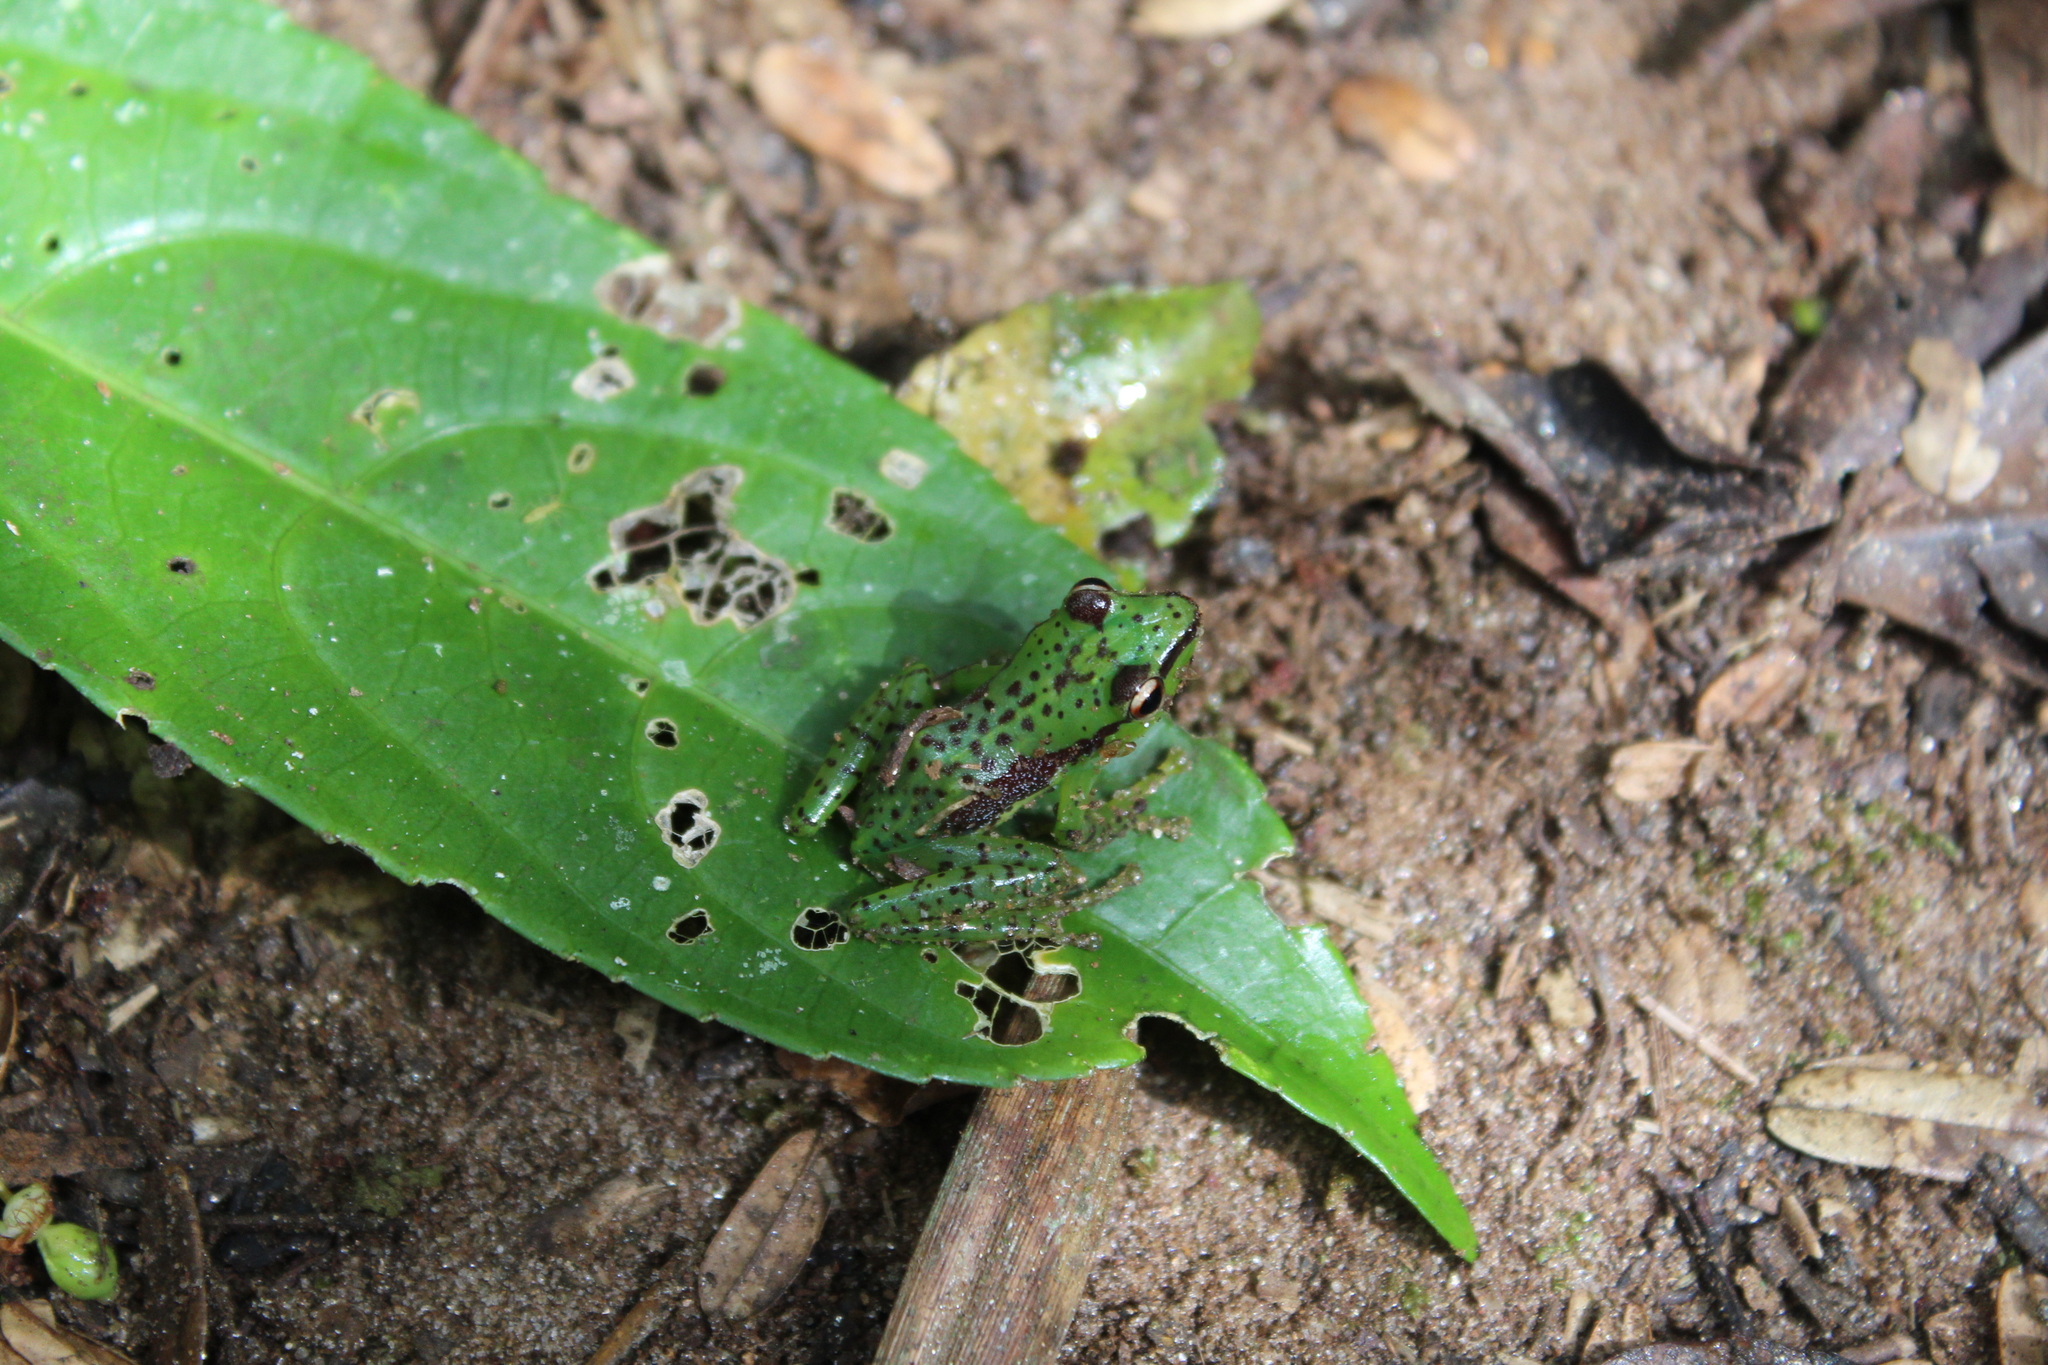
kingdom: Animalia
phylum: Chordata
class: Amphibia
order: Anura
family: Mantellidae
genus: Guibemantis
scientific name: Guibemantis pulcher
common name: Tsarafidy madagascar frog
